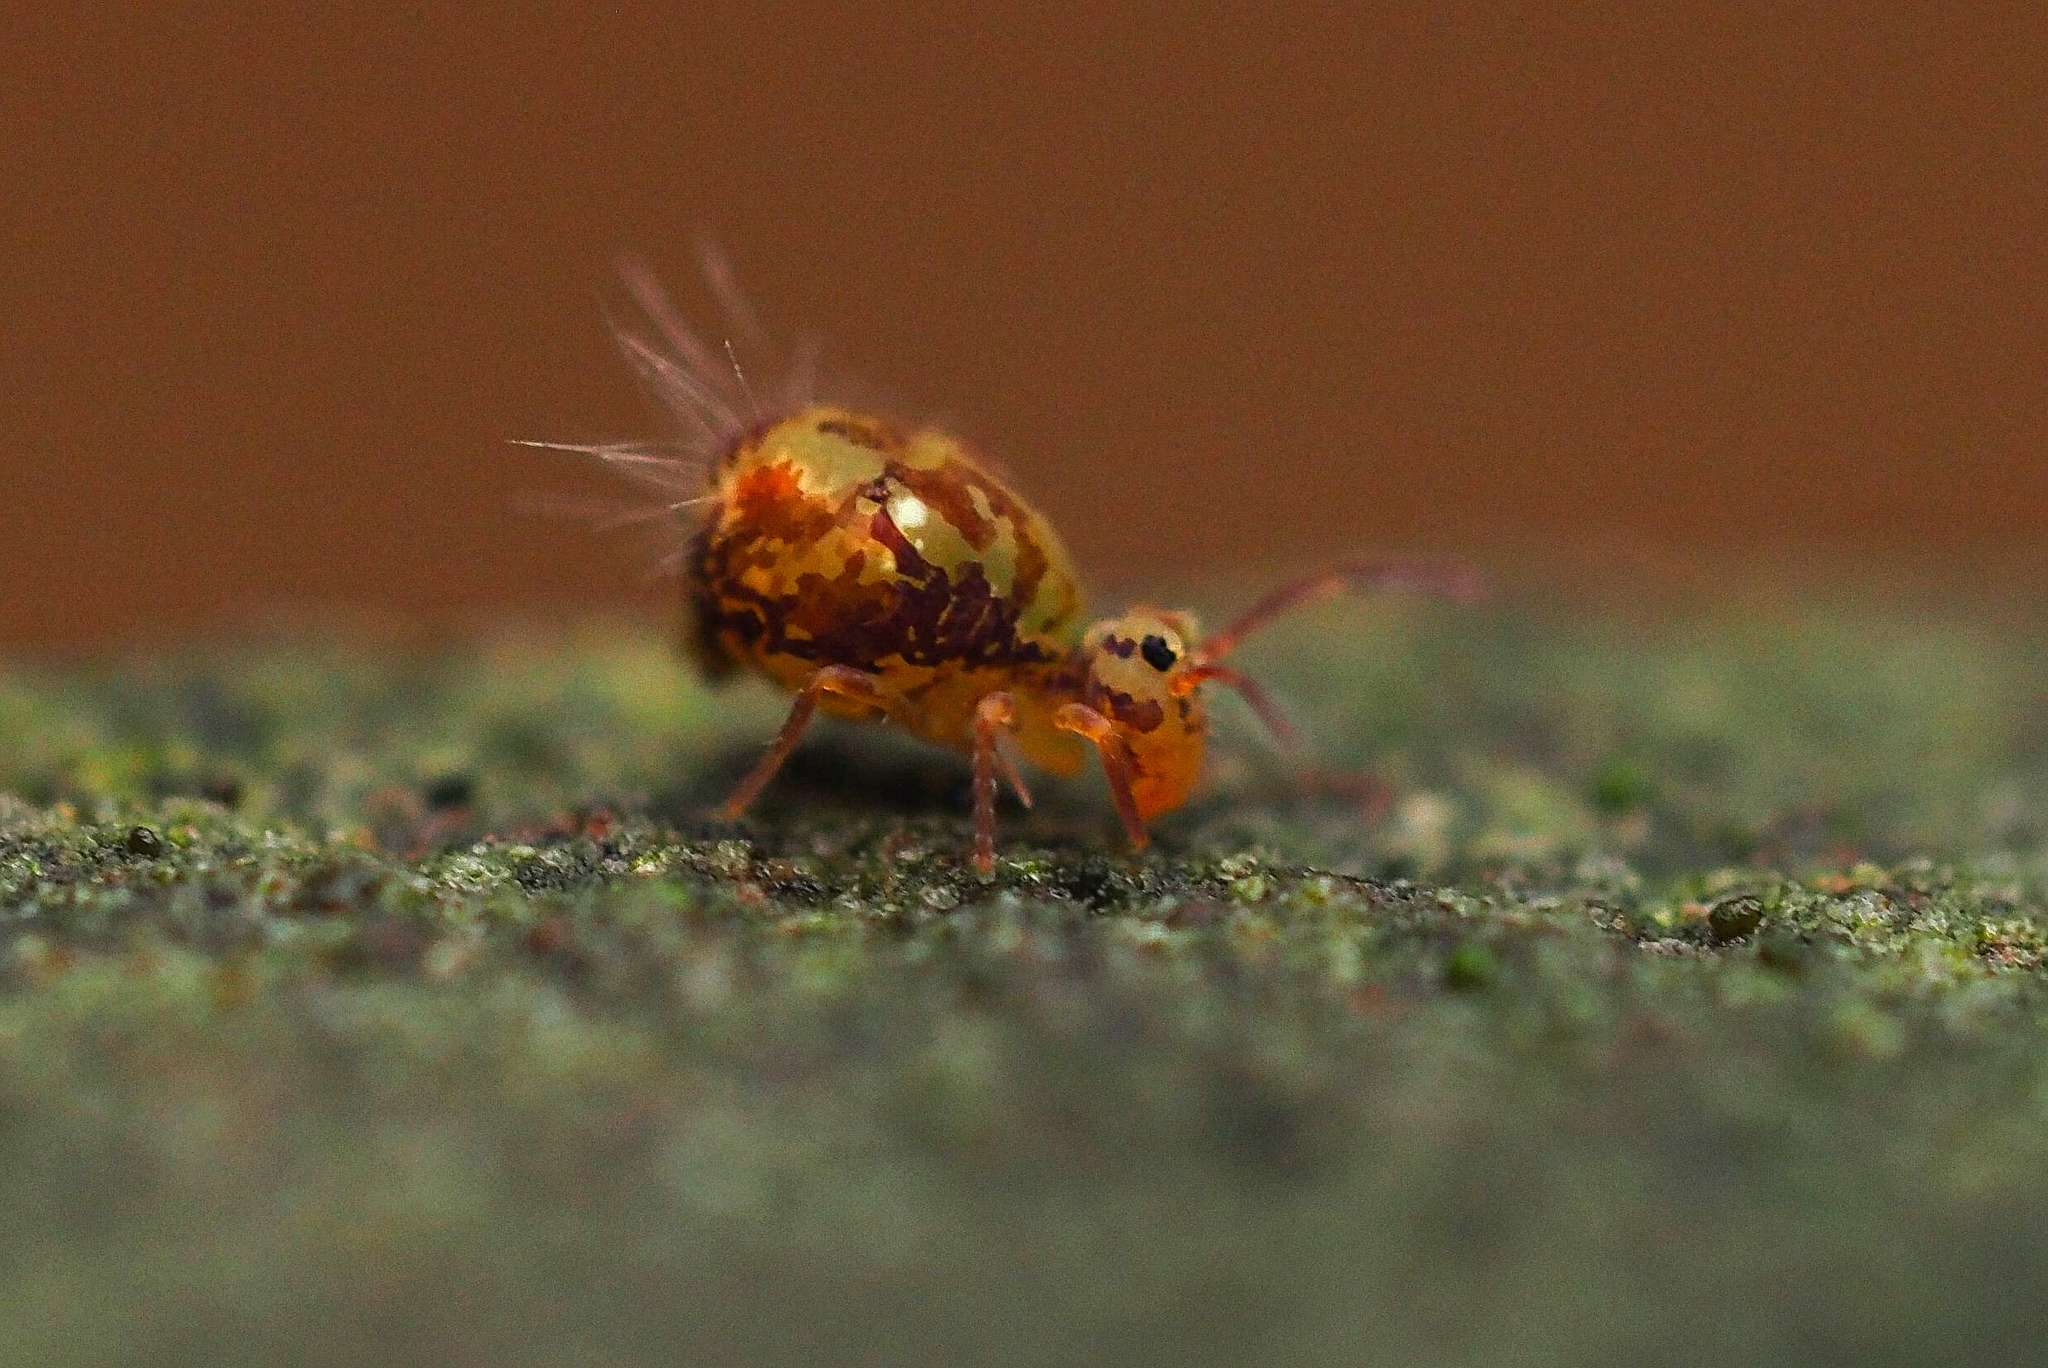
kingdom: Animalia
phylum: Arthropoda
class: Collembola
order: Symphypleona
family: Dicyrtomidae
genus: Dicyrtomina
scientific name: Dicyrtomina saundersi
